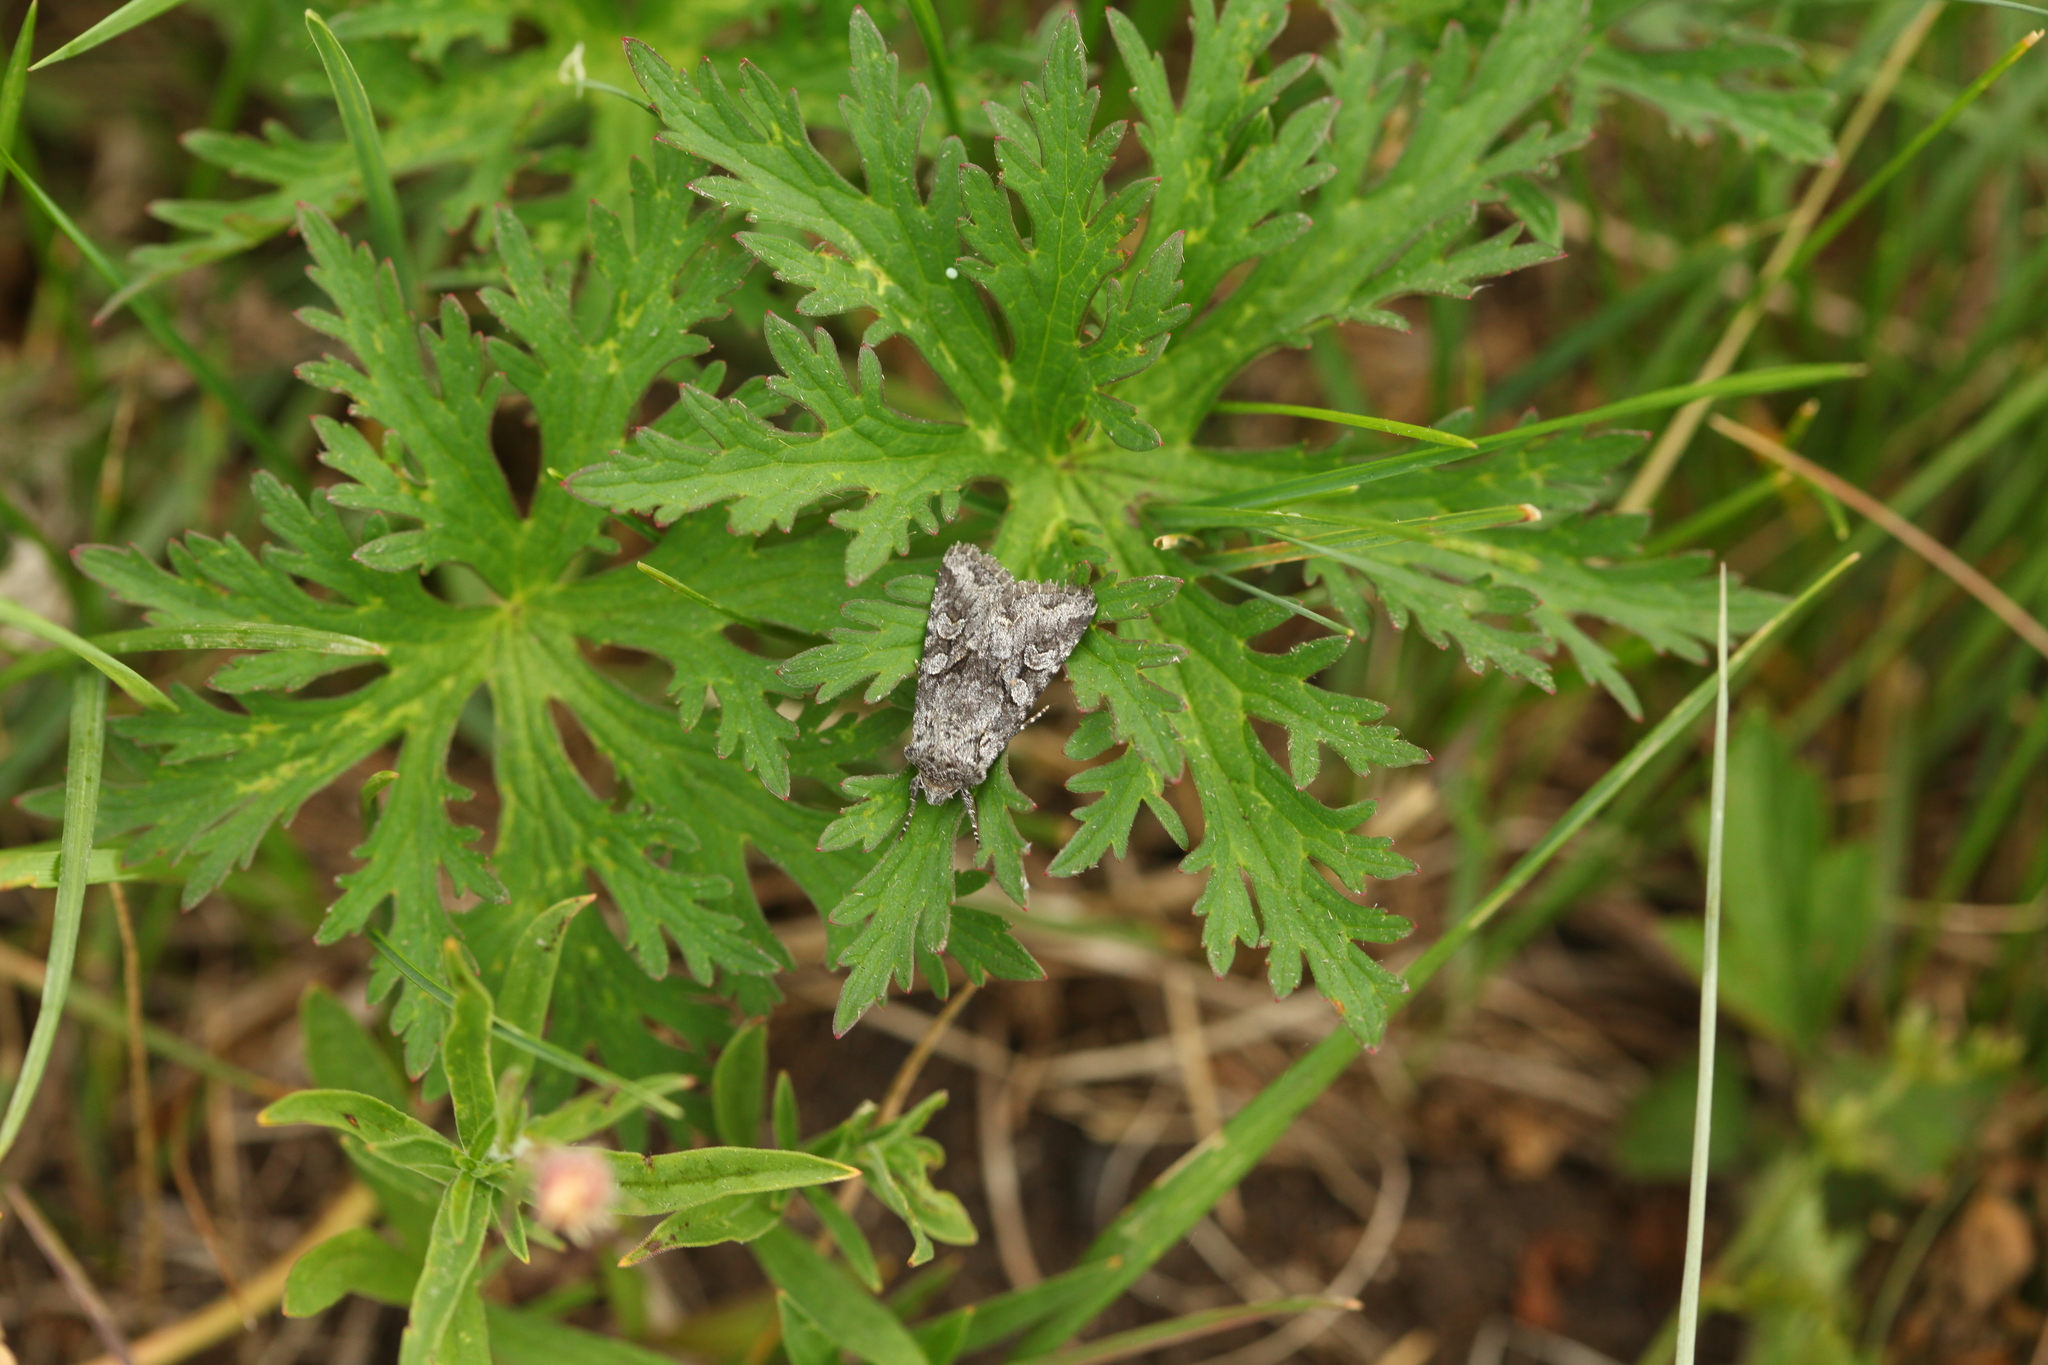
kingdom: Animalia
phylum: Arthropoda
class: Insecta
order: Lepidoptera
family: Noctuidae
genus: Papestra
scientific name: Papestra biren
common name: Glaucous shears
